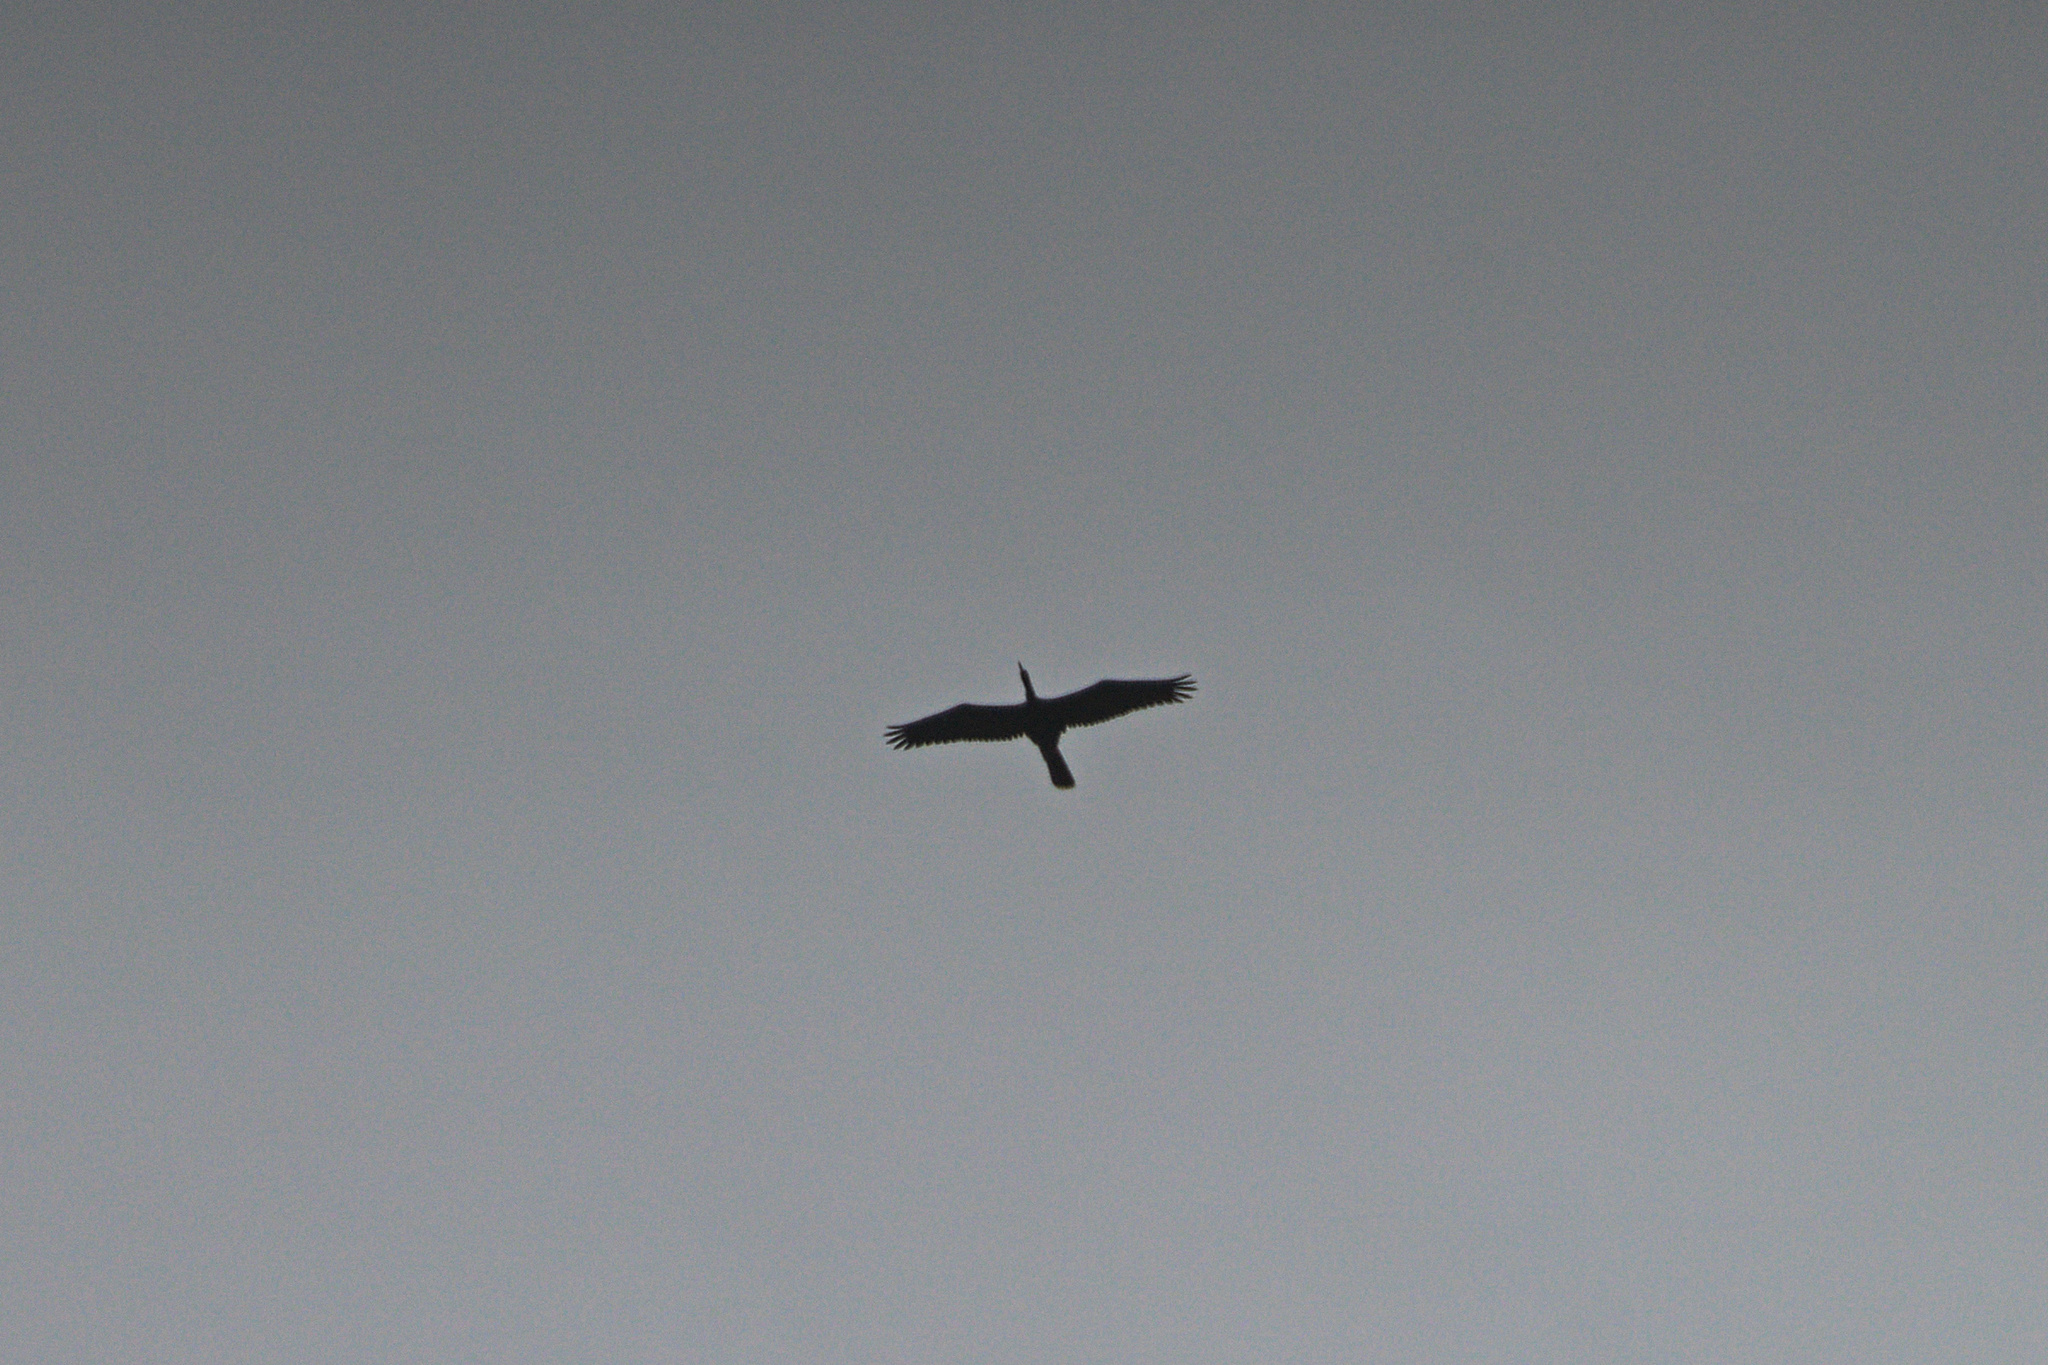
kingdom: Animalia
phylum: Chordata
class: Aves
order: Suliformes
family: Anhingidae
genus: Anhinga
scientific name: Anhinga anhinga
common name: Anhinga
